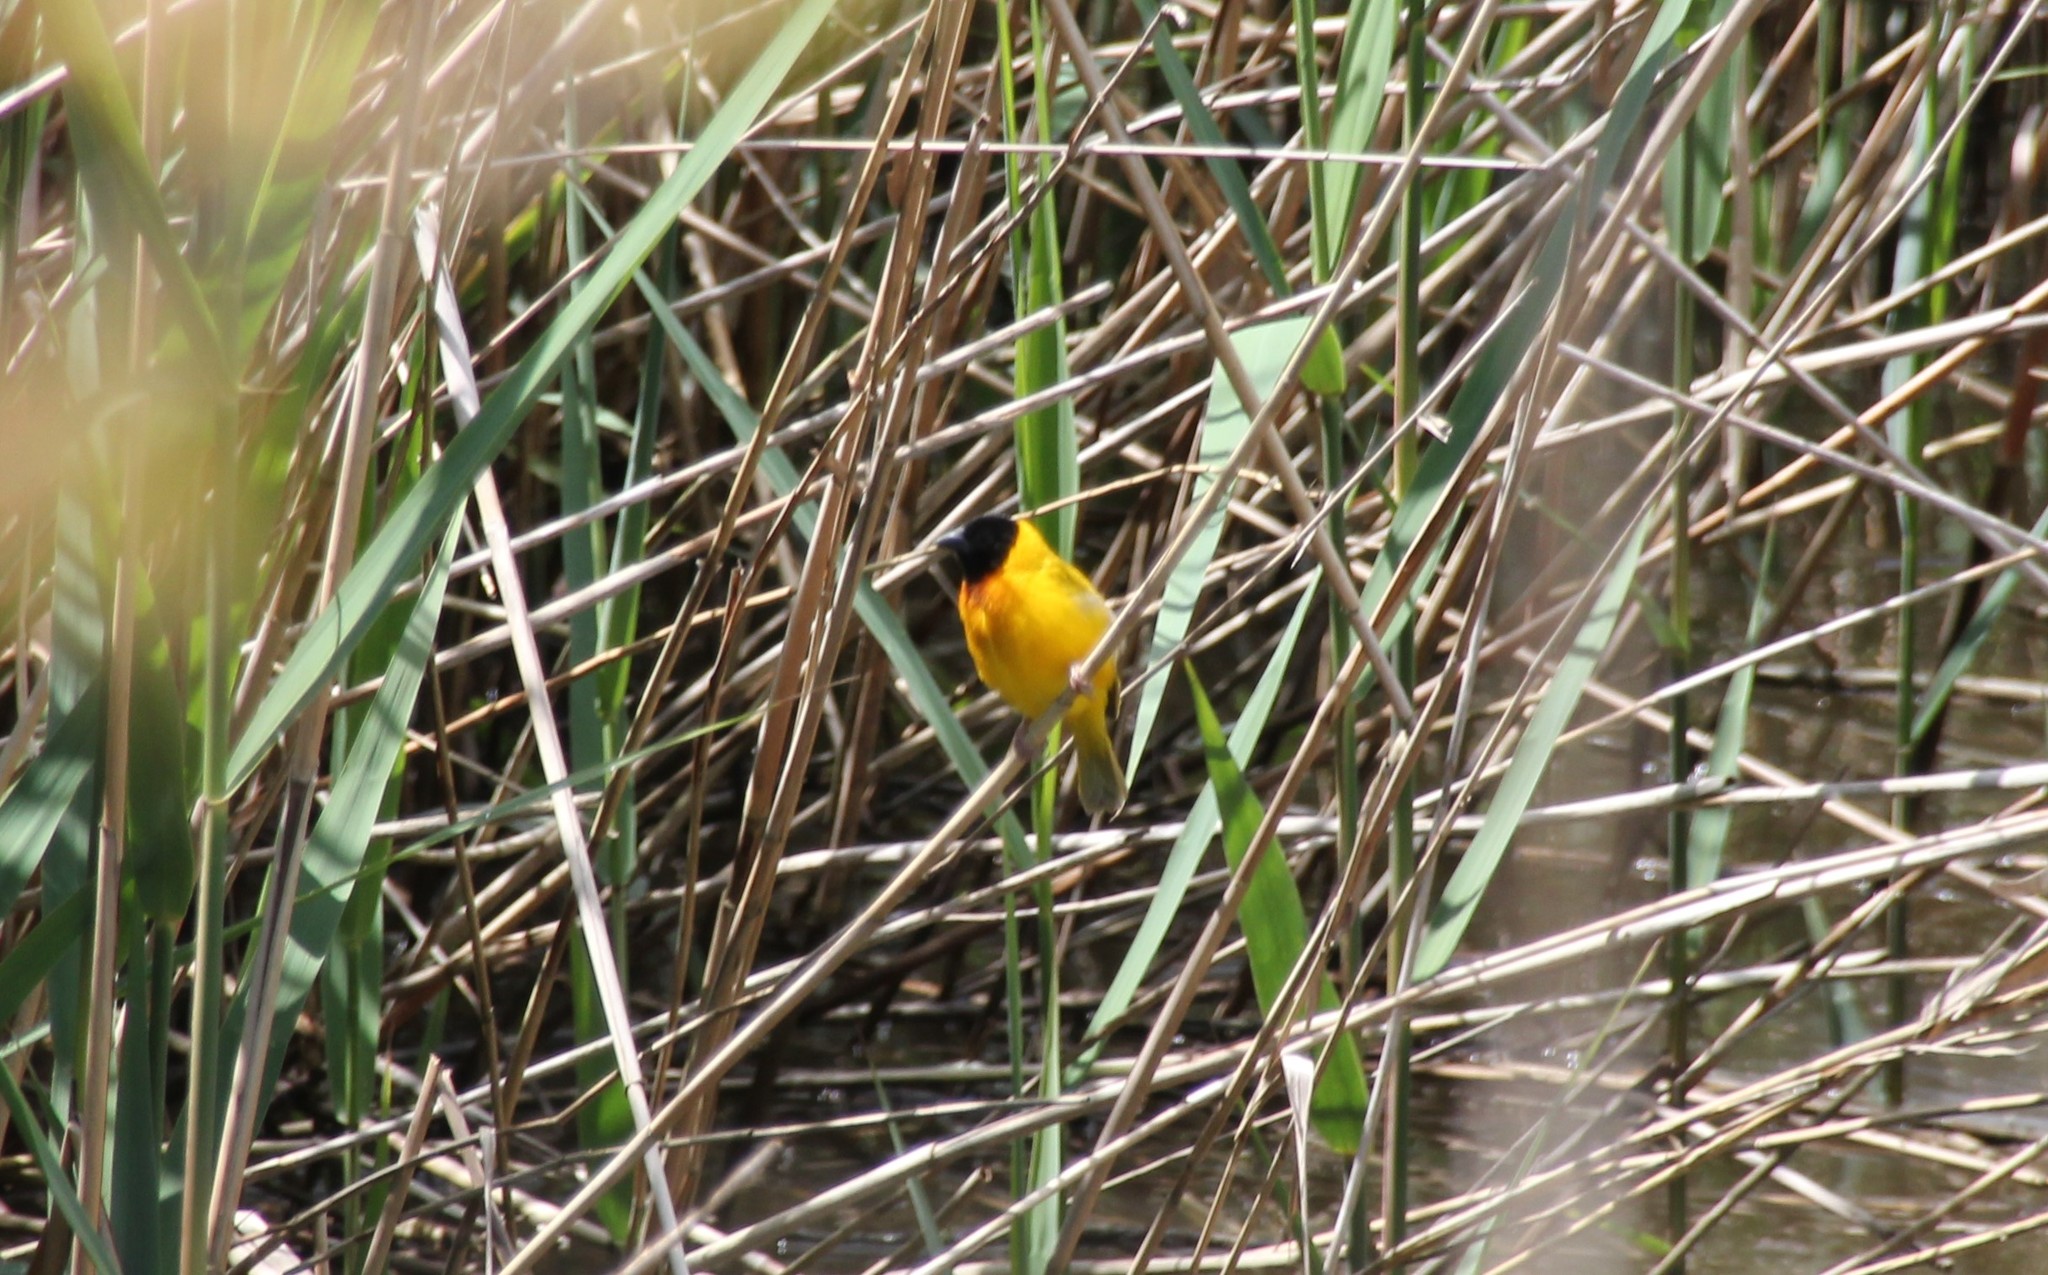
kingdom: Animalia
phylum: Chordata
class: Aves
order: Passeriformes
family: Ploceidae
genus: Ploceus
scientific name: Ploceus melanocephalus
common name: Black-headed weaver
